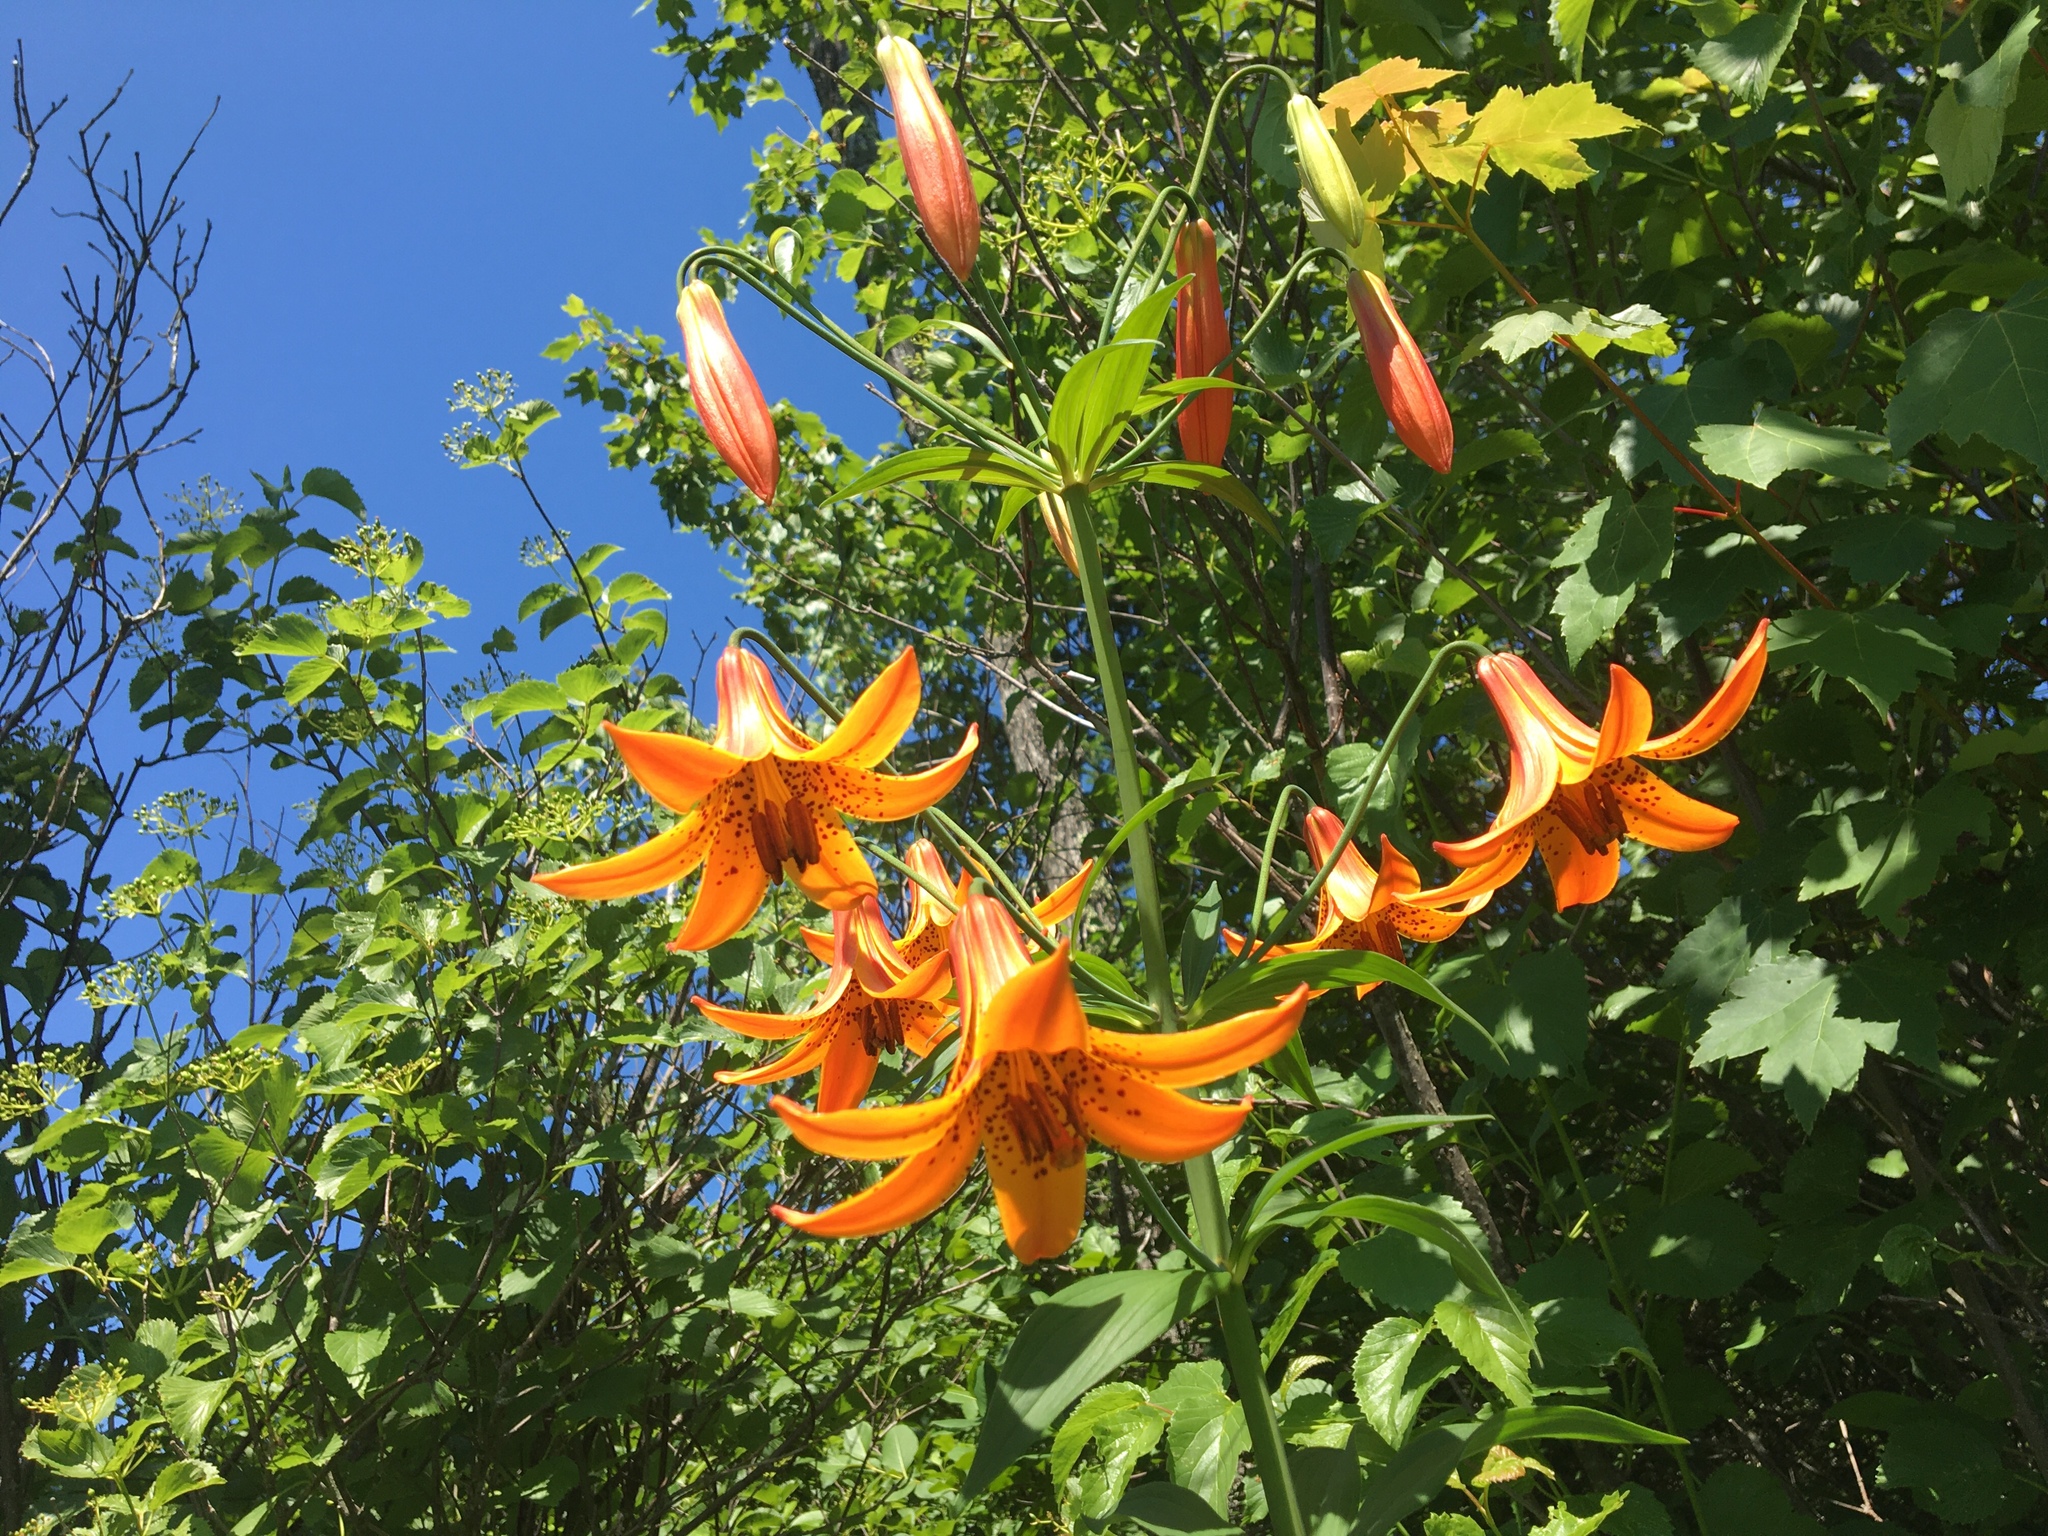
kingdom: Plantae
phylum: Tracheophyta
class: Liliopsida
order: Liliales
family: Liliaceae
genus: Lilium
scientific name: Lilium canadense
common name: Canada lily
